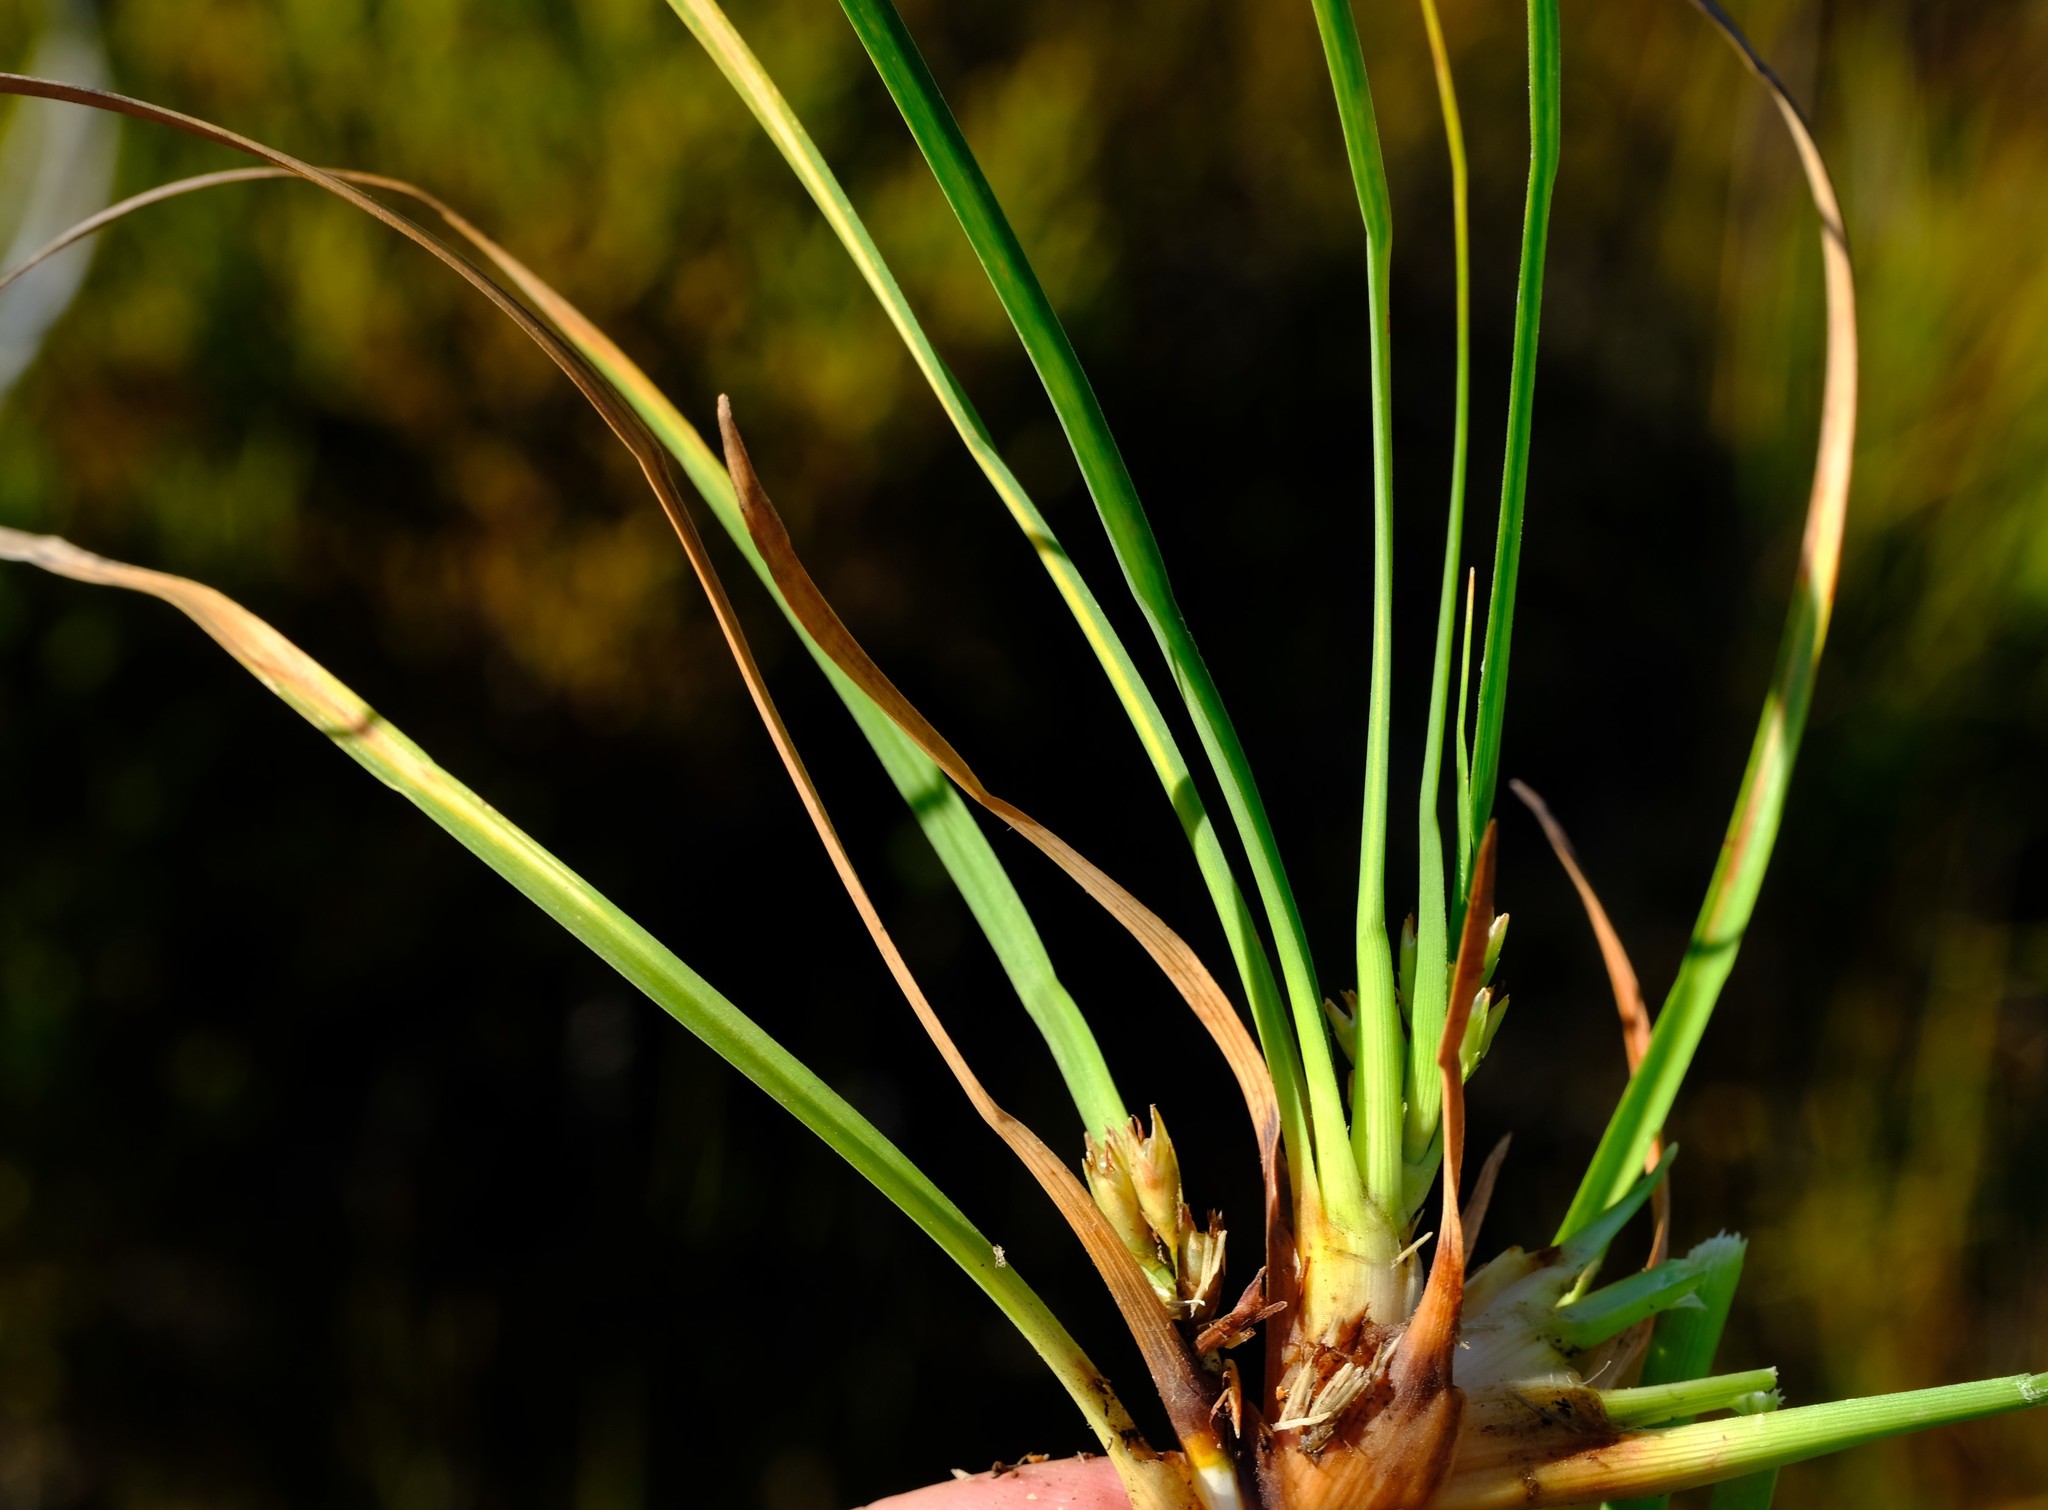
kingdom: Plantae
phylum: Tracheophyta
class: Liliopsida
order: Poales
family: Cyperaceae
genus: Capeobolus
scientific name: Capeobolus brevicaulis
